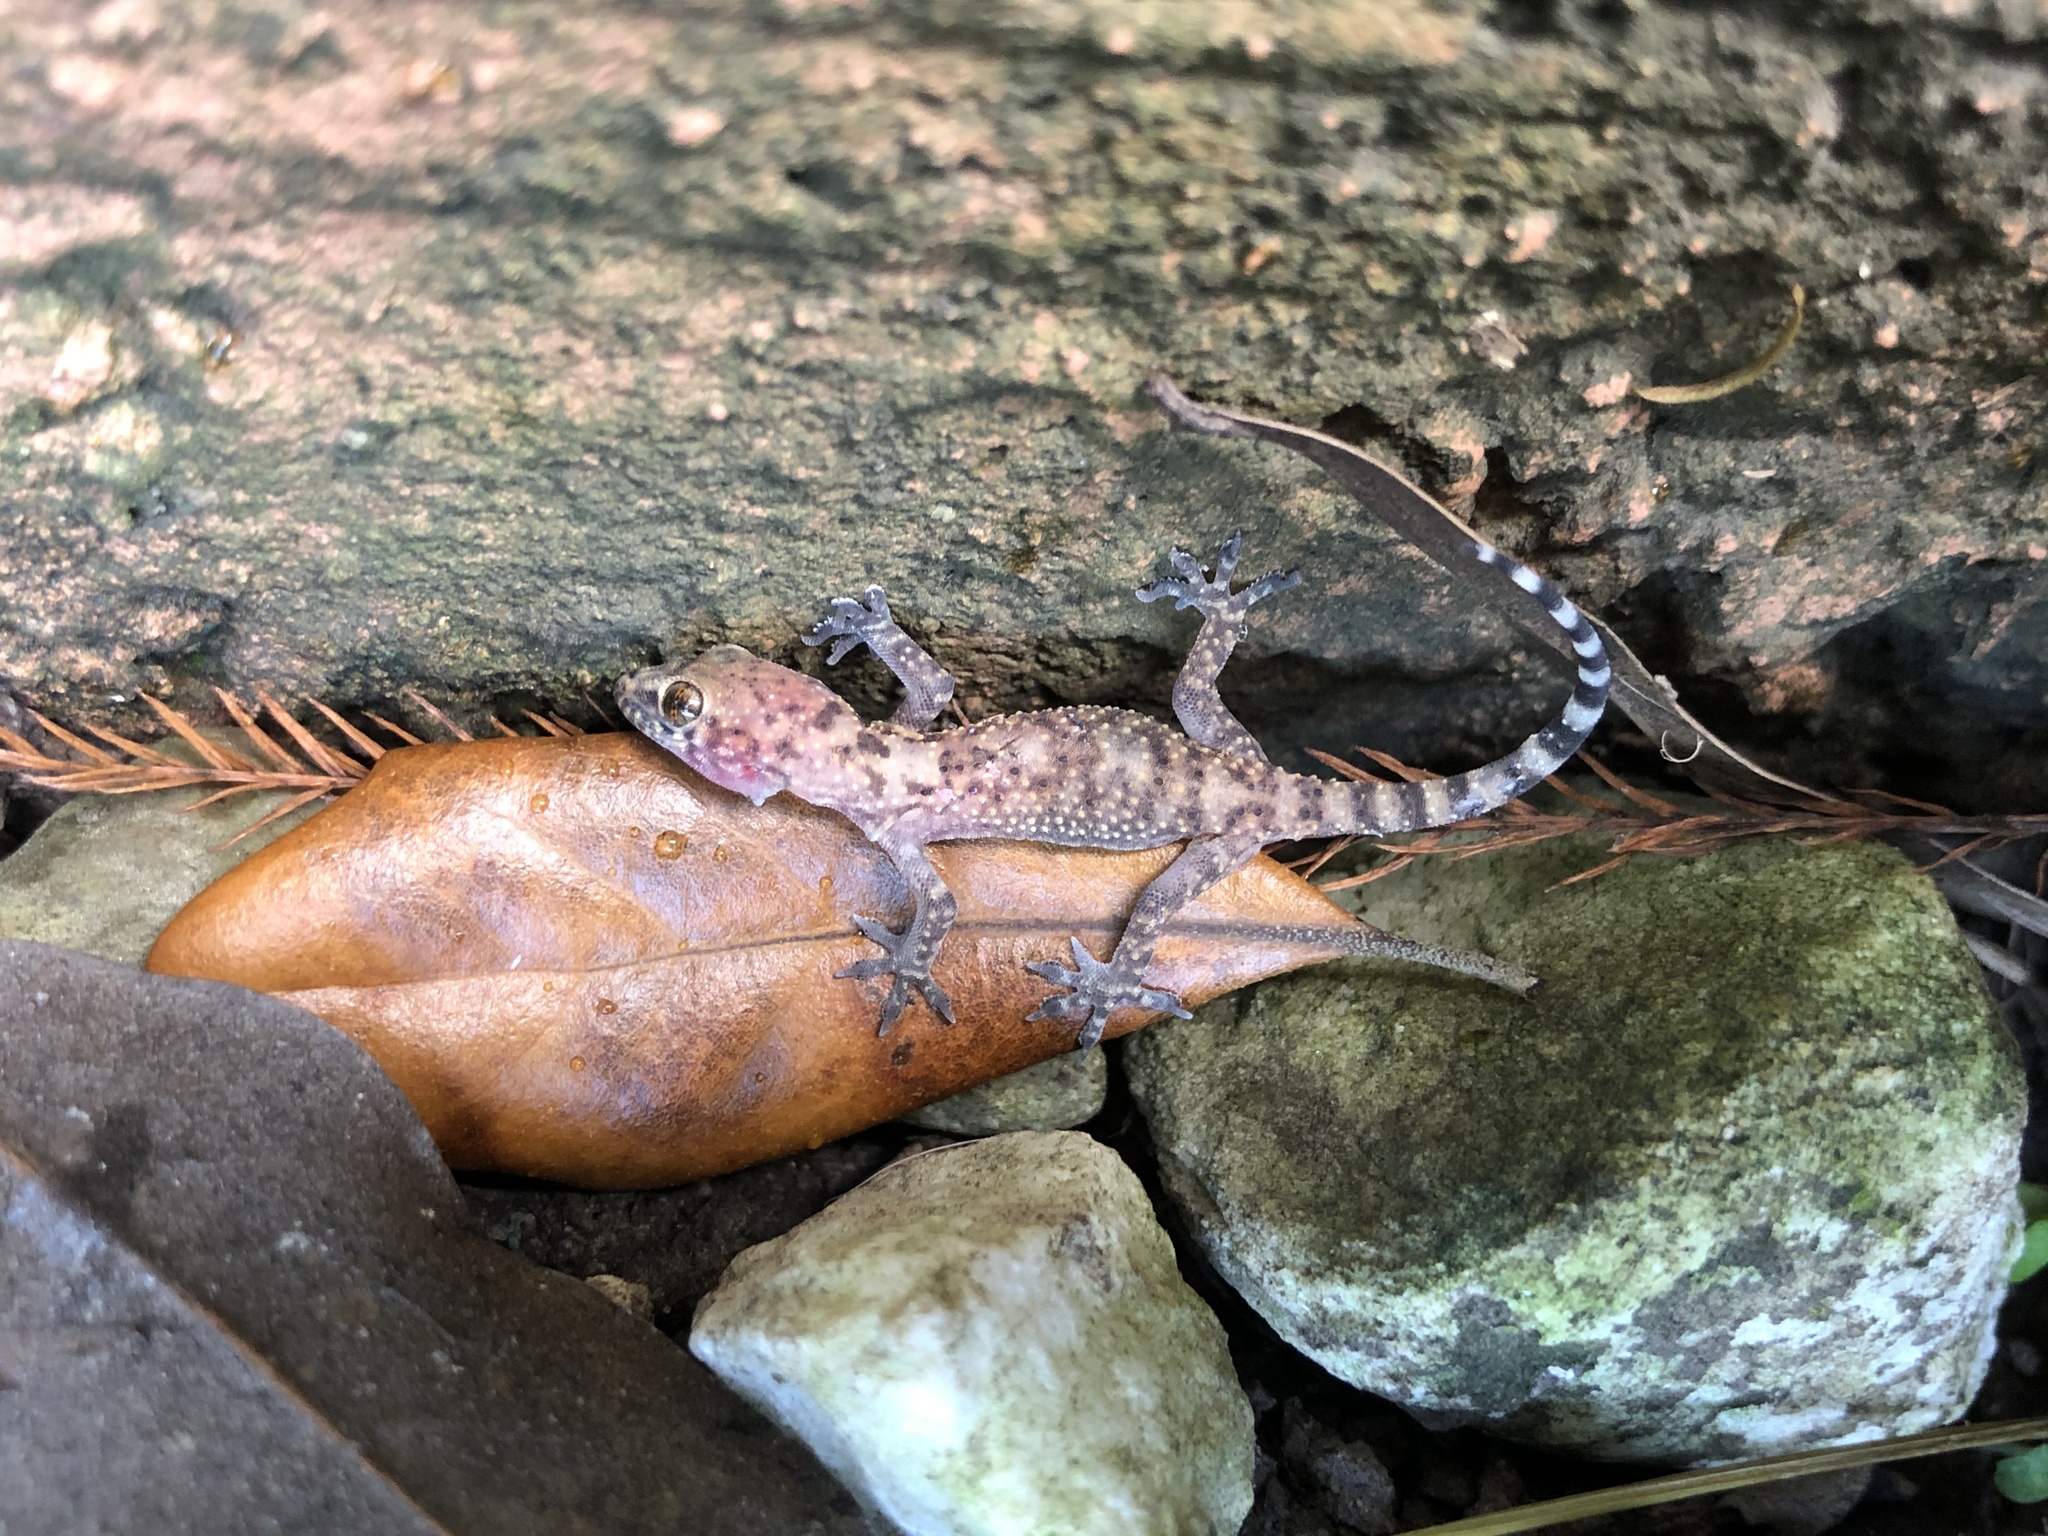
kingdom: Animalia
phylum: Chordata
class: Squamata
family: Gekkonidae
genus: Hemidactylus
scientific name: Hemidactylus turcicus
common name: Turkish gecko
